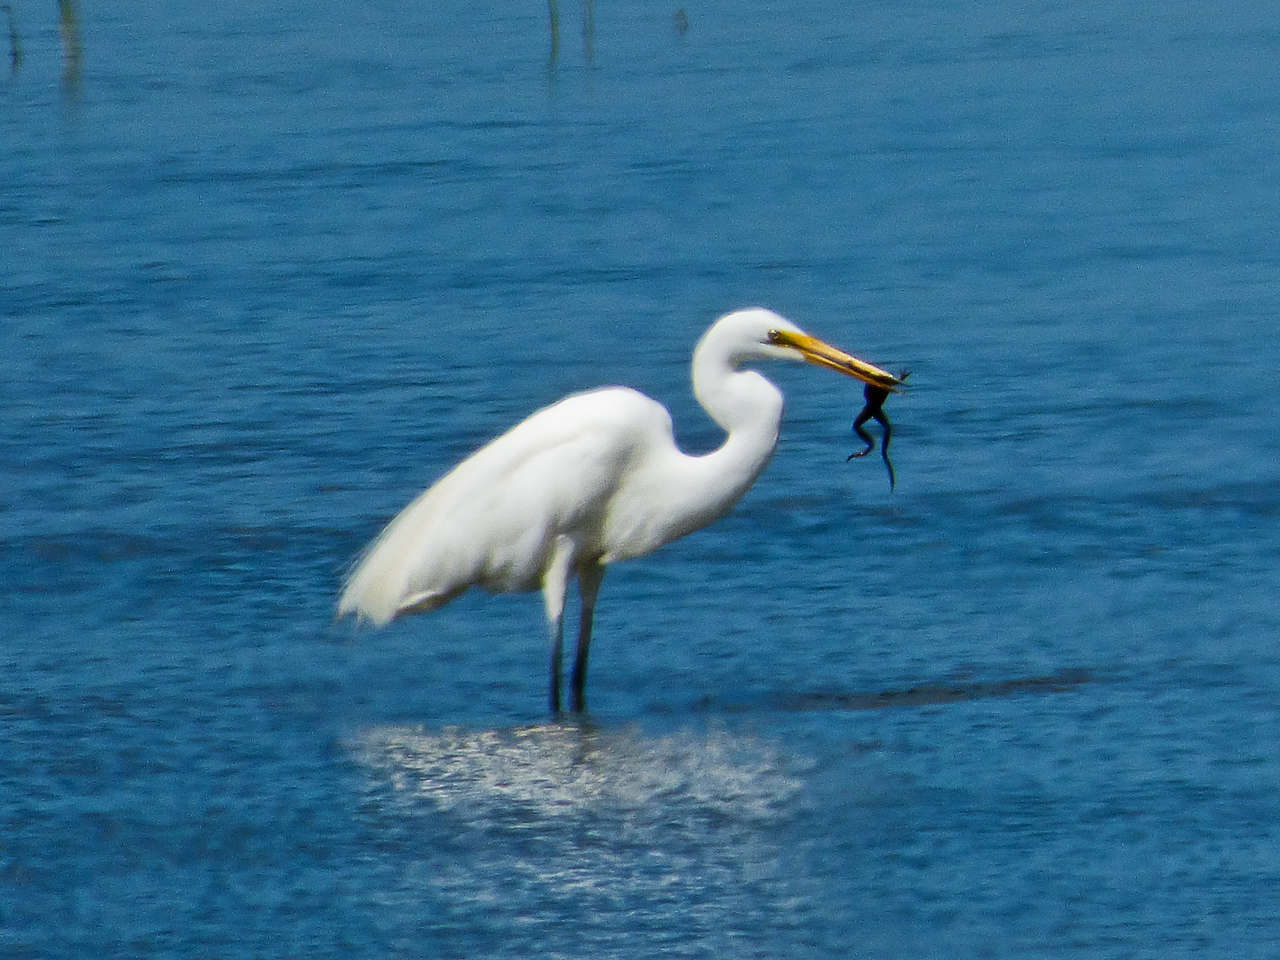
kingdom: Animalia
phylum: Chordata
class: Aves
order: Pelecaniformes
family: Ardeidae
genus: Ardea
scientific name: Ardea modesta
